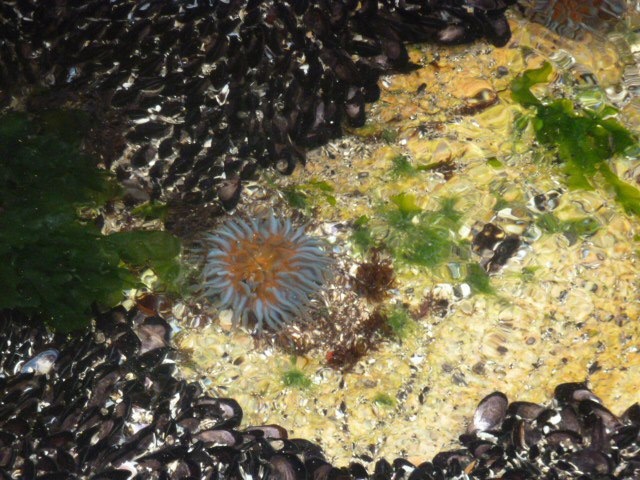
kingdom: Animalia
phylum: Cnidaria
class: Anthozoa
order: Actiniaria
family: Actiniidae
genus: Bunodosoma
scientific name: Bunodosoma cangicum
